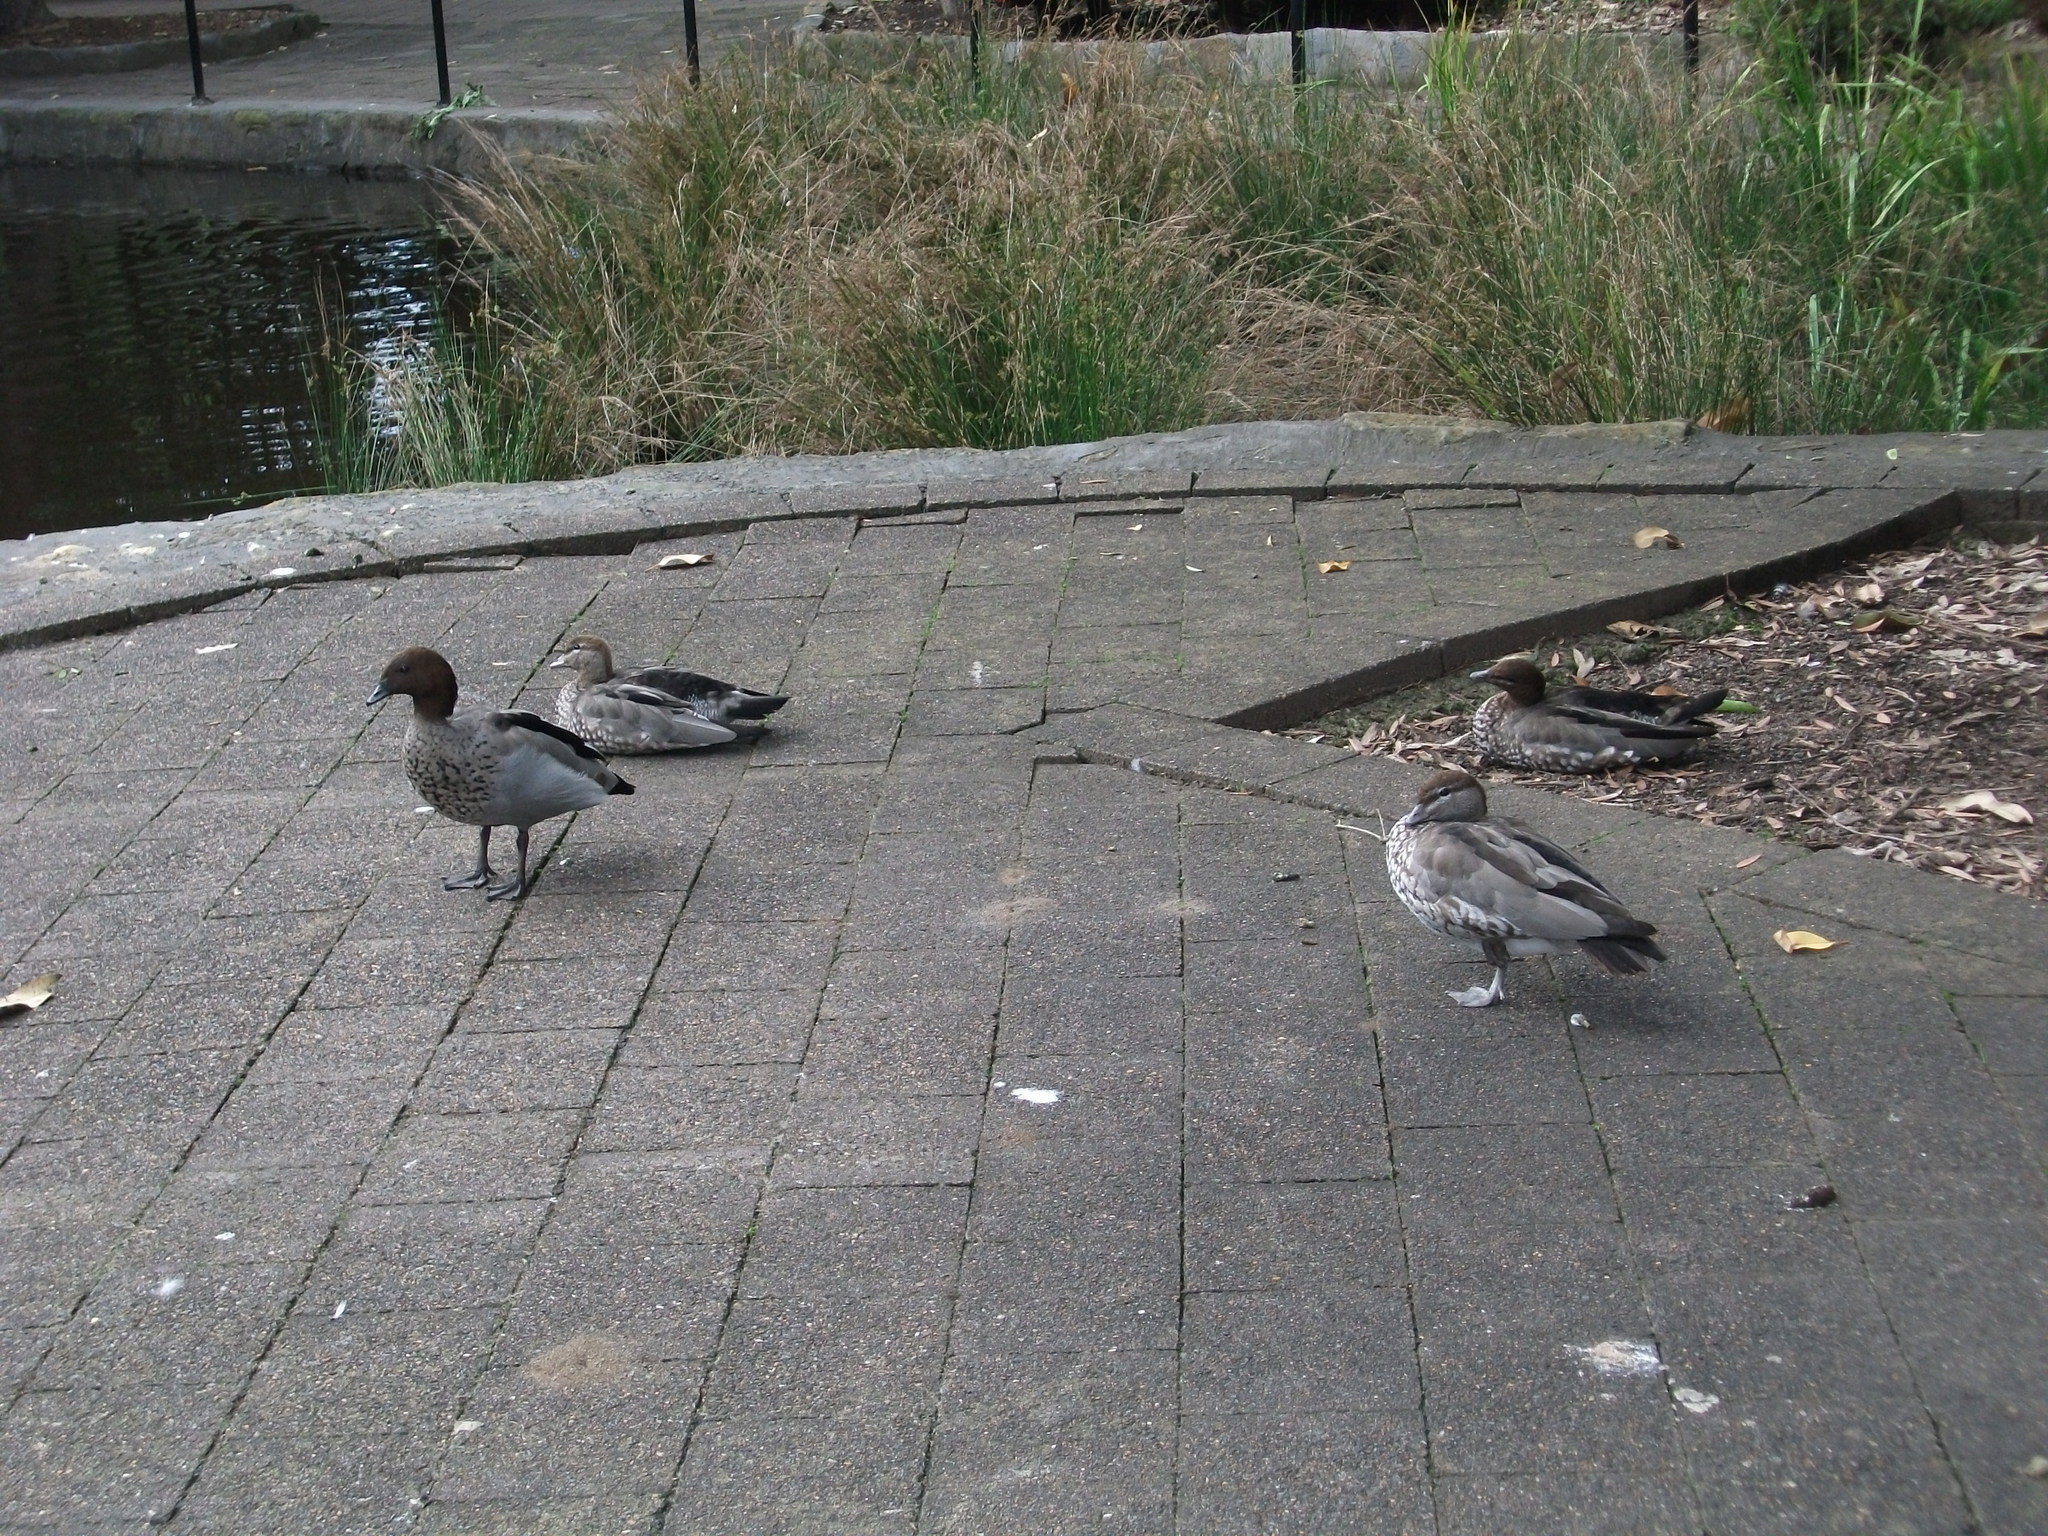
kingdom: Animalia
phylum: Chordata
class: Aves
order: Anseriformes
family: Anatidae
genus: Chenonetta
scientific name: Chenonetta jubata
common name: Maned duck
